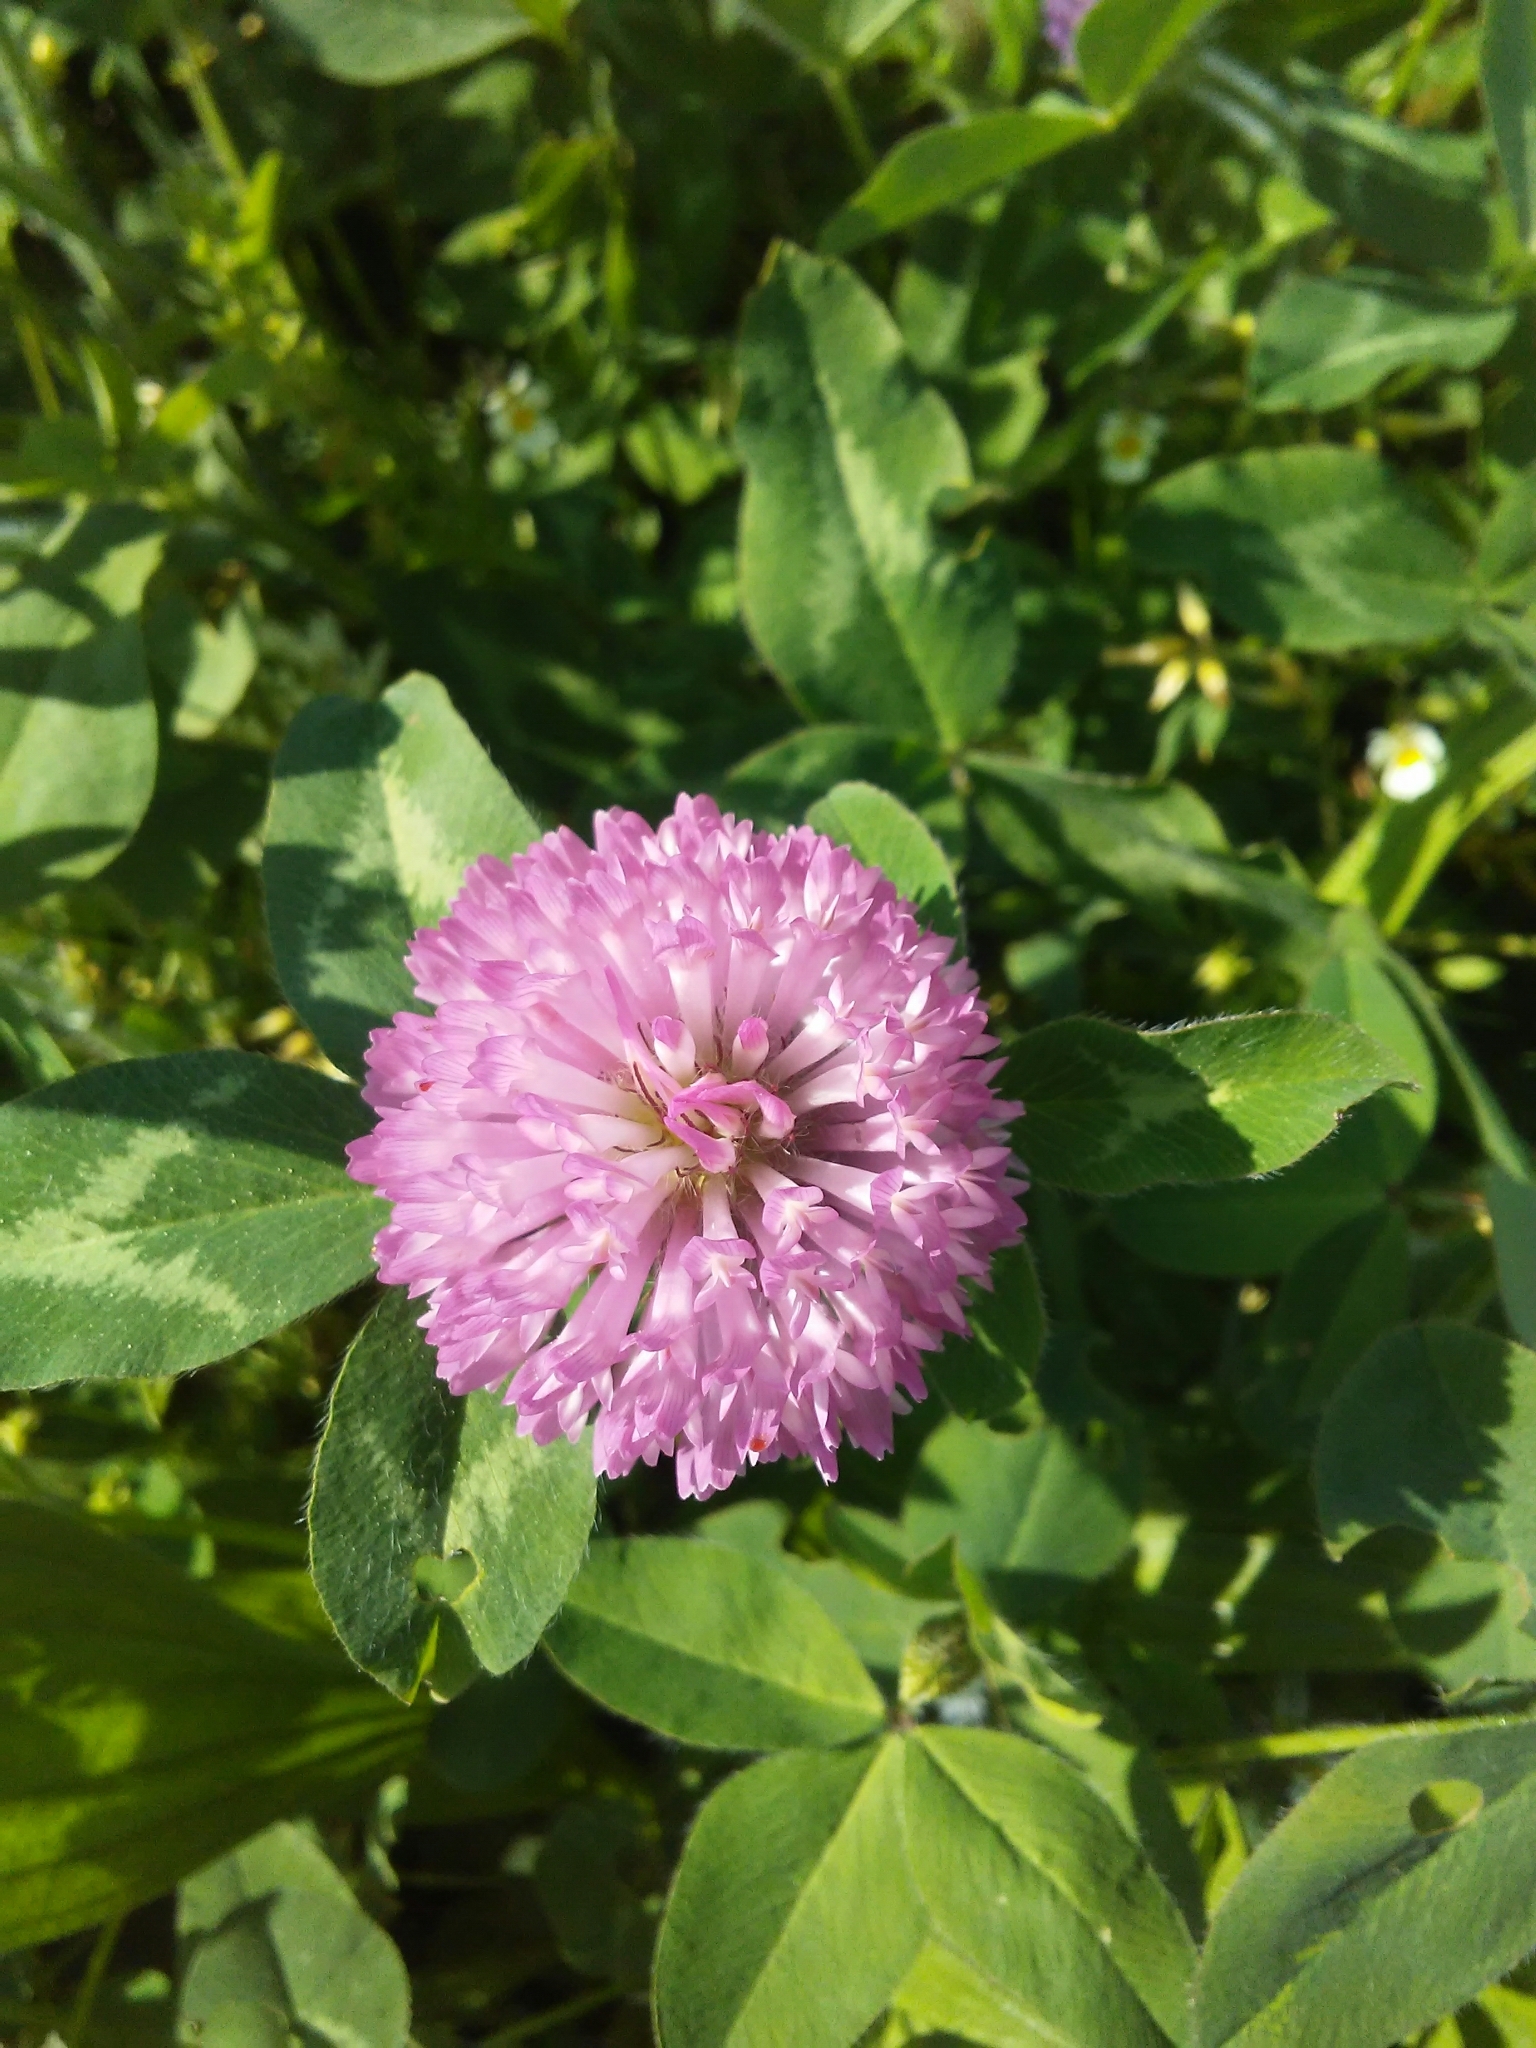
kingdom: Plantae
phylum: Tracheophyta
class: Magnoliopsida
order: Fabales
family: Fabaceae
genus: Trifolium
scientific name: Trifolium pratense
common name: Red clover
